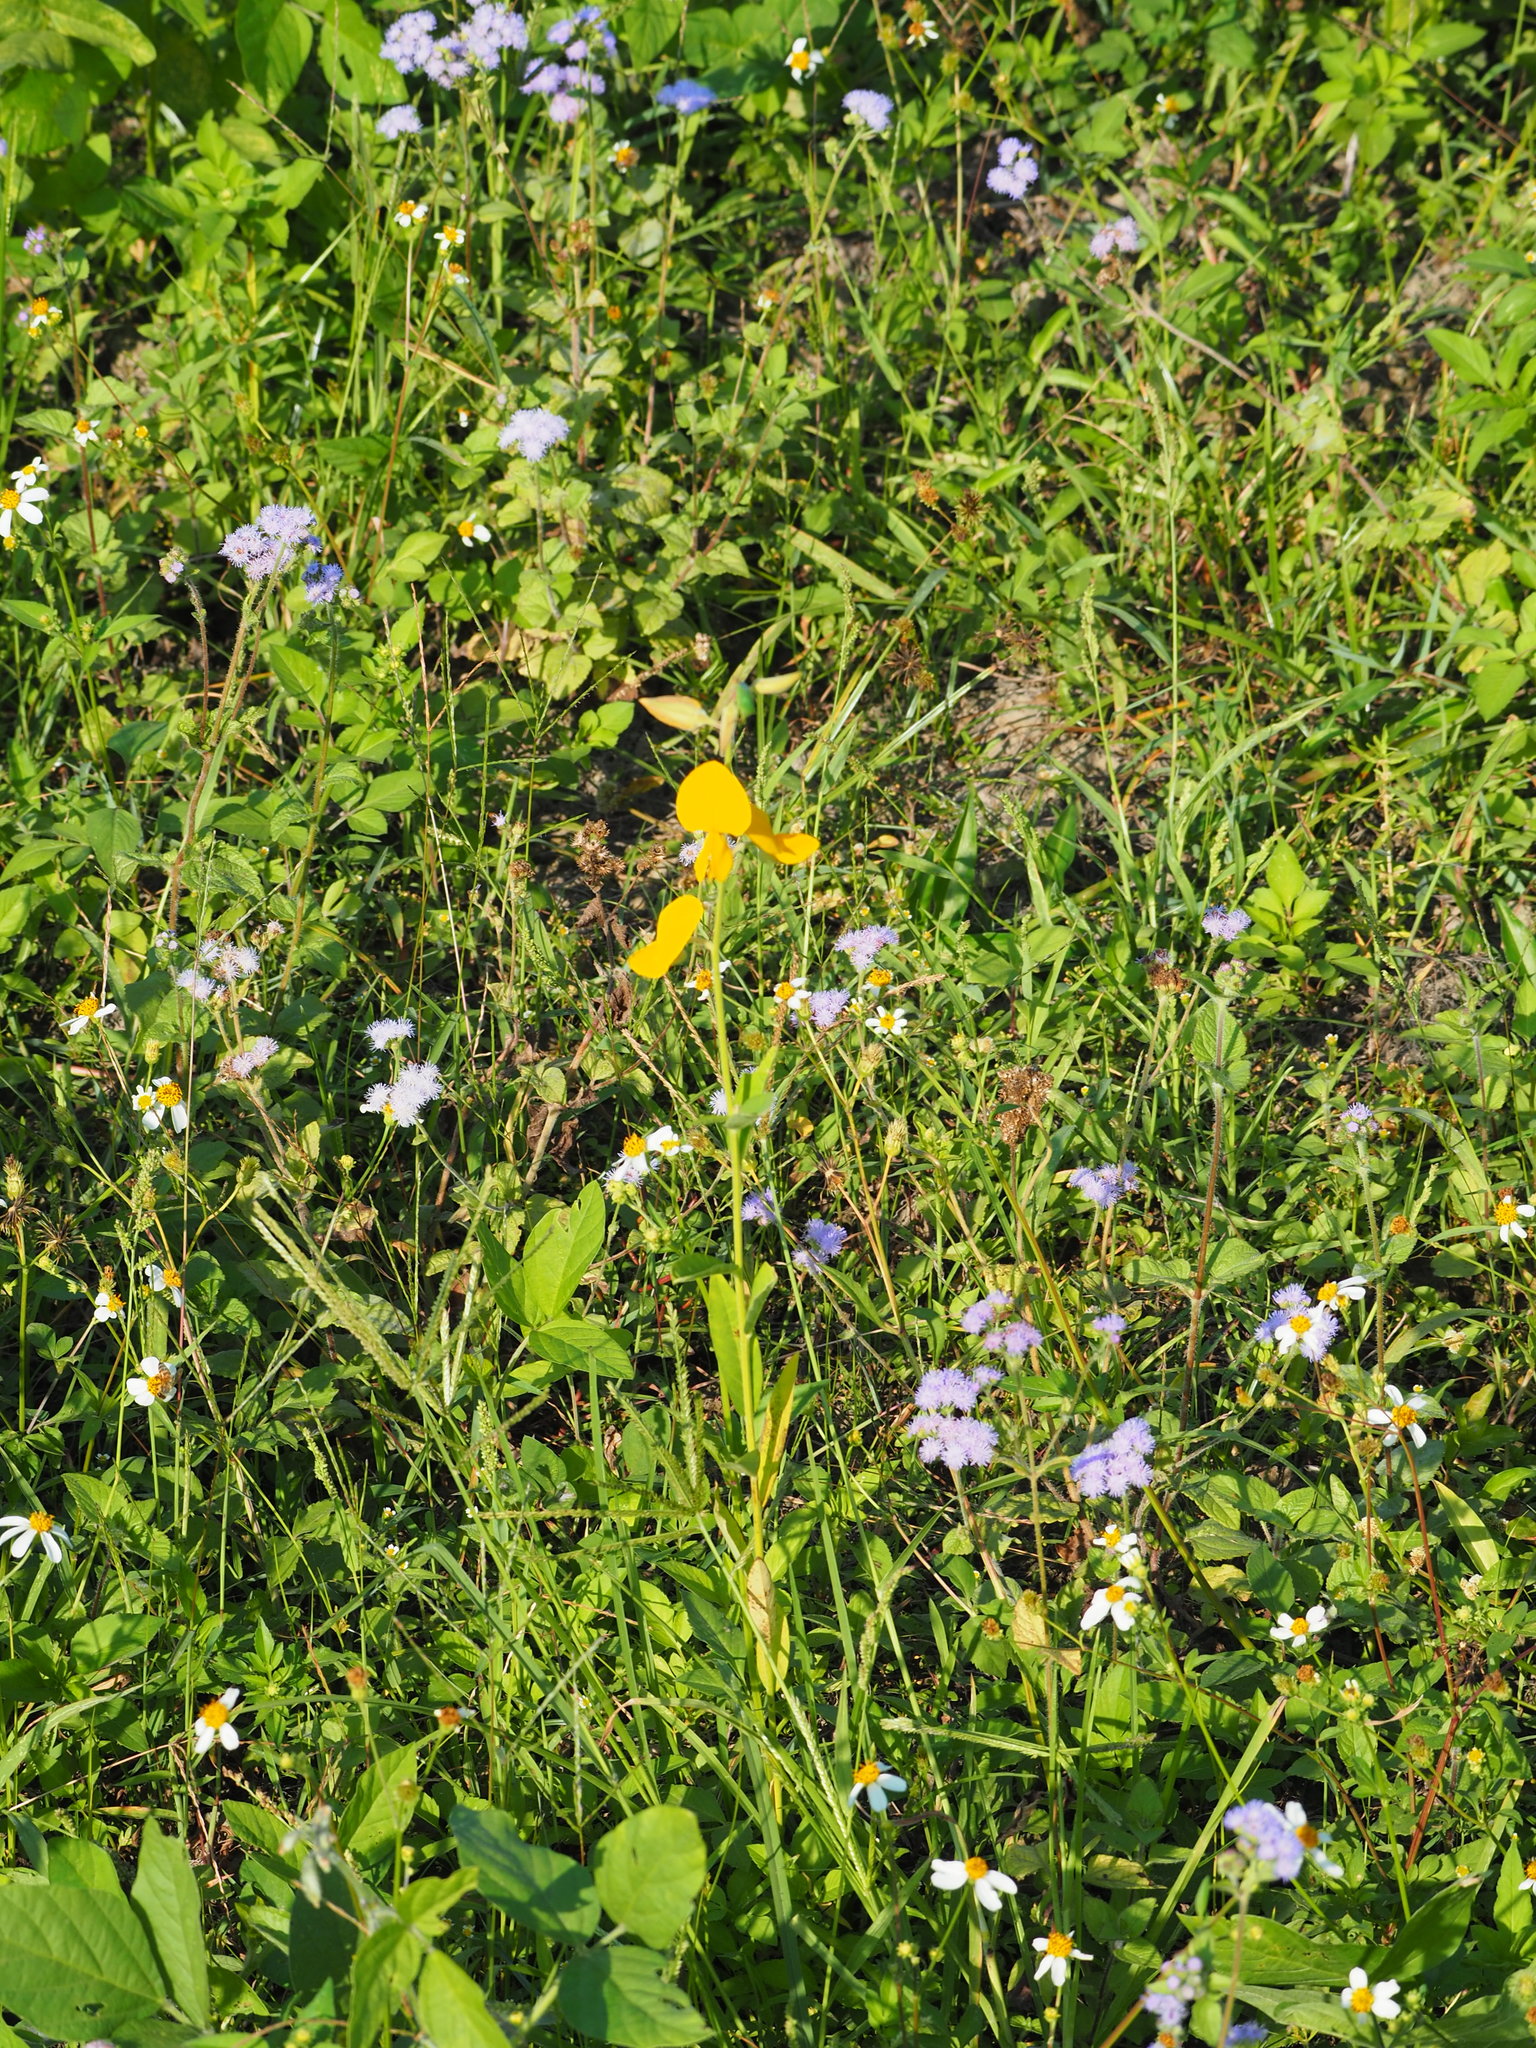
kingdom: Plantae
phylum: Tracheophyta
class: Magnoliopsida
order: Fabales
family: Fabaceae
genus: Crotalaria
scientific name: Crotalaria juncea
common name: Sunn hemp
